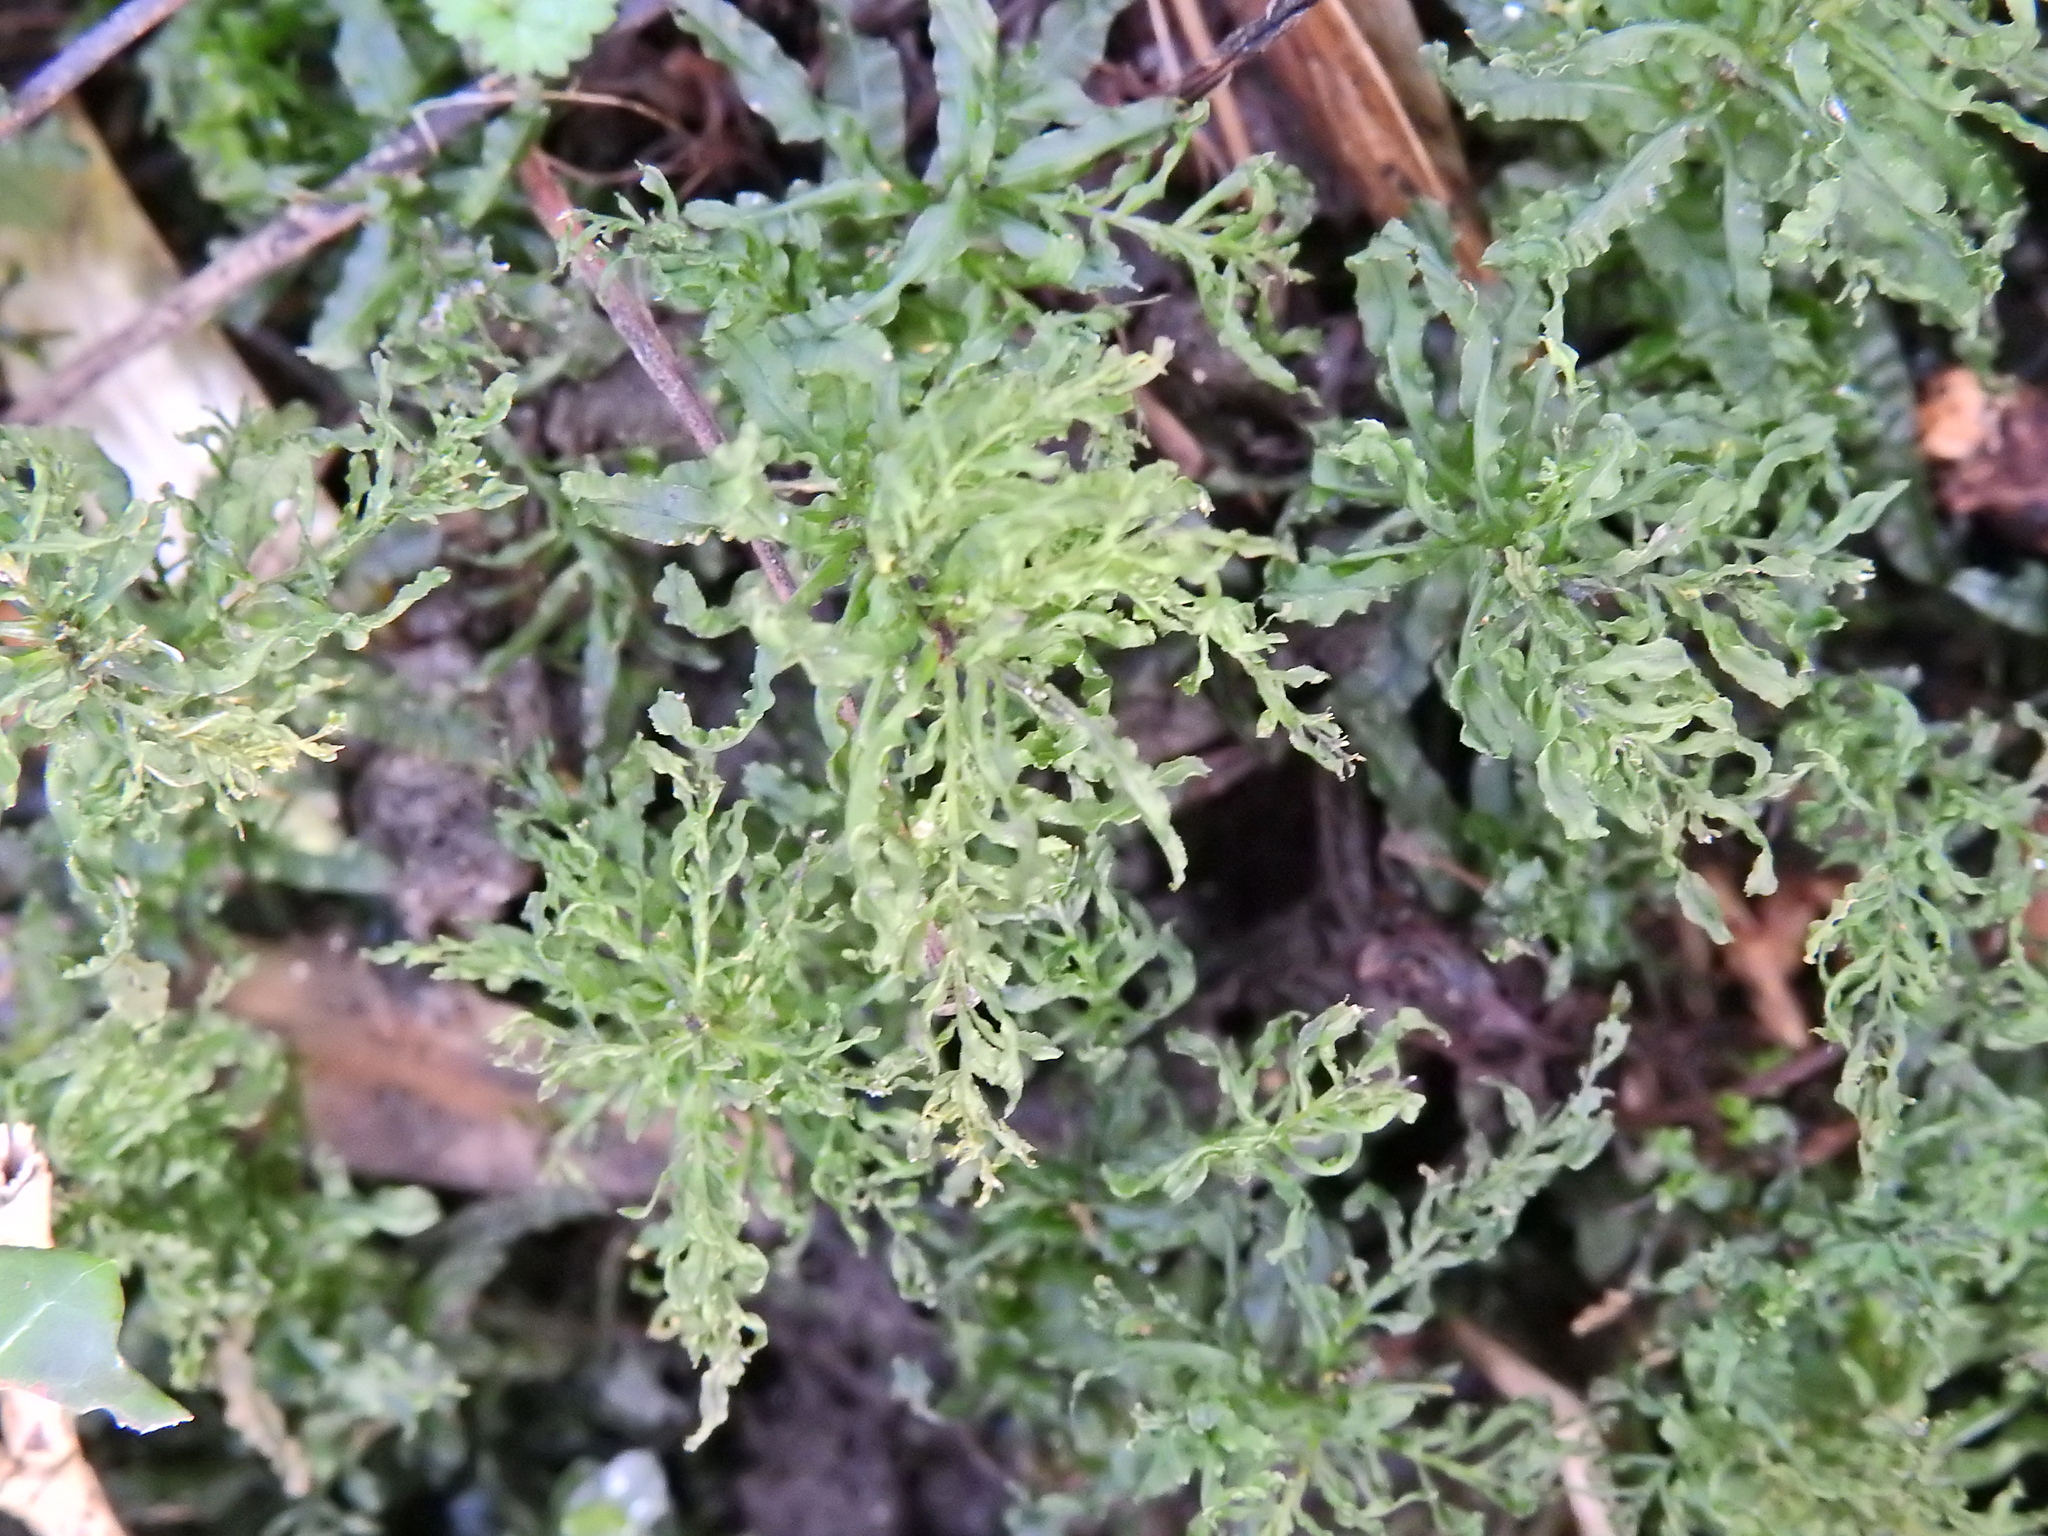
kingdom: Plantae
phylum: Bryophyta
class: Bryopsida
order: Bryales
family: Mniaceae
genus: Plagiomnium
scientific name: Plagiomnium undulatum
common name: Hart's-tongue thyme-moss
